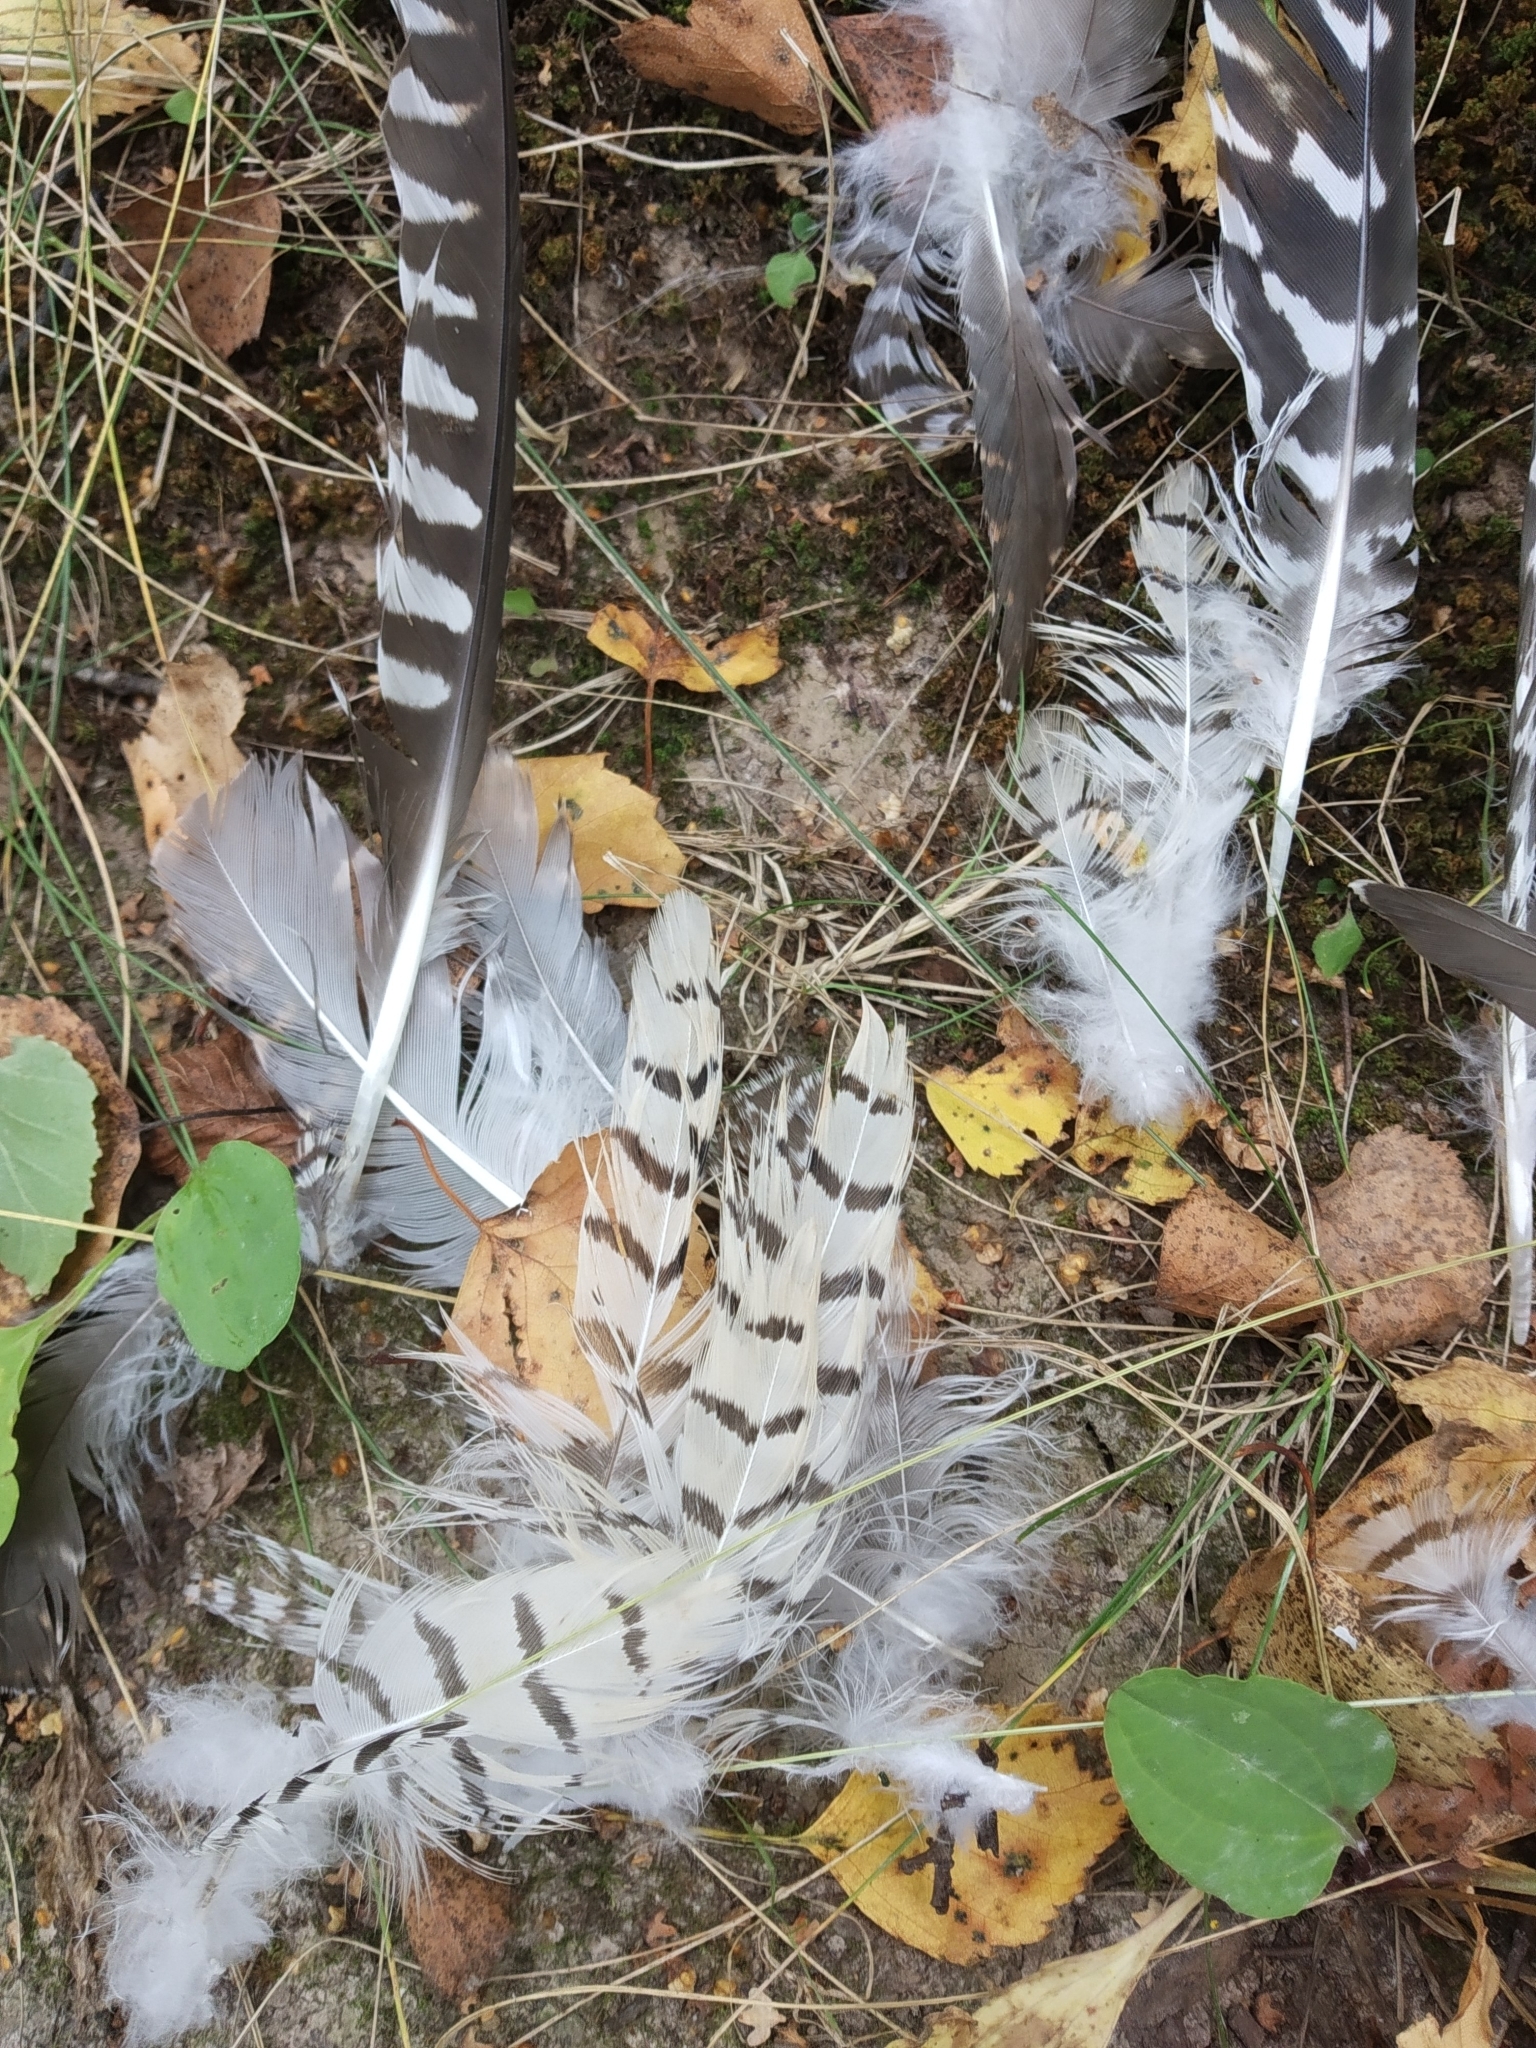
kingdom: Animalia
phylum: Chordata
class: Aves
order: Cuculiformes
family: Cuculidae
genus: Cuculus
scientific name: Cuculus canorus
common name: Common cuckoo
